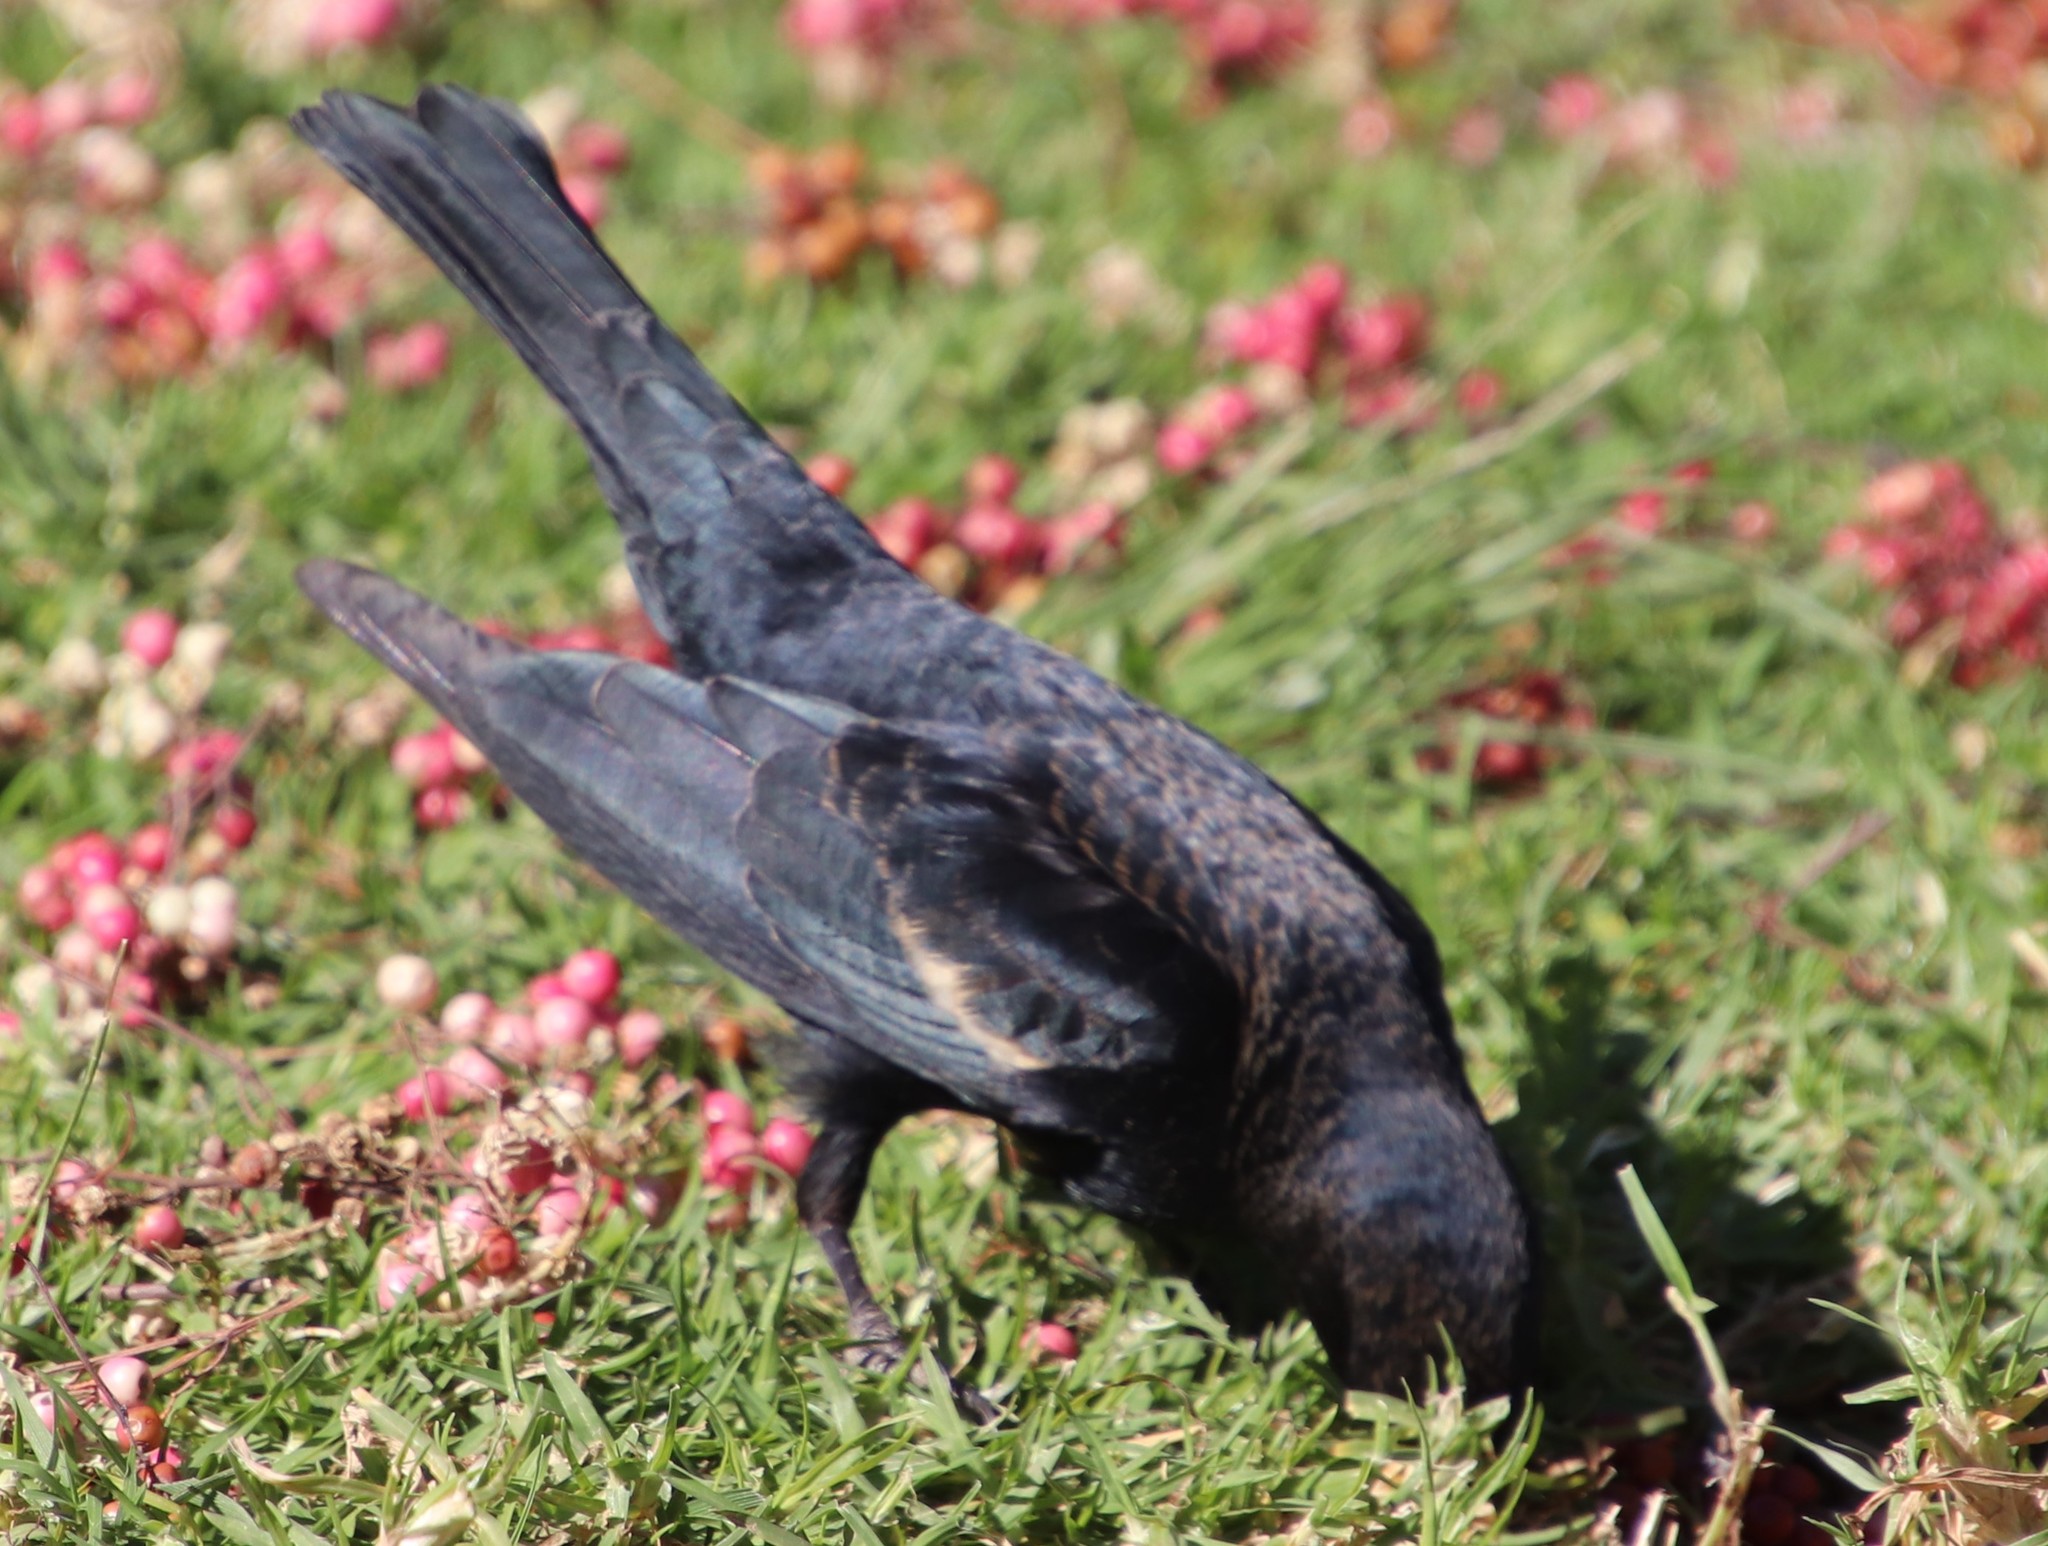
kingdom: Animalia
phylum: Chordata
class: Aves
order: Passeriformes
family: Icteridae
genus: Agelaius
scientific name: Agelaius phoeniceus
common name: Red-winged blackbird
